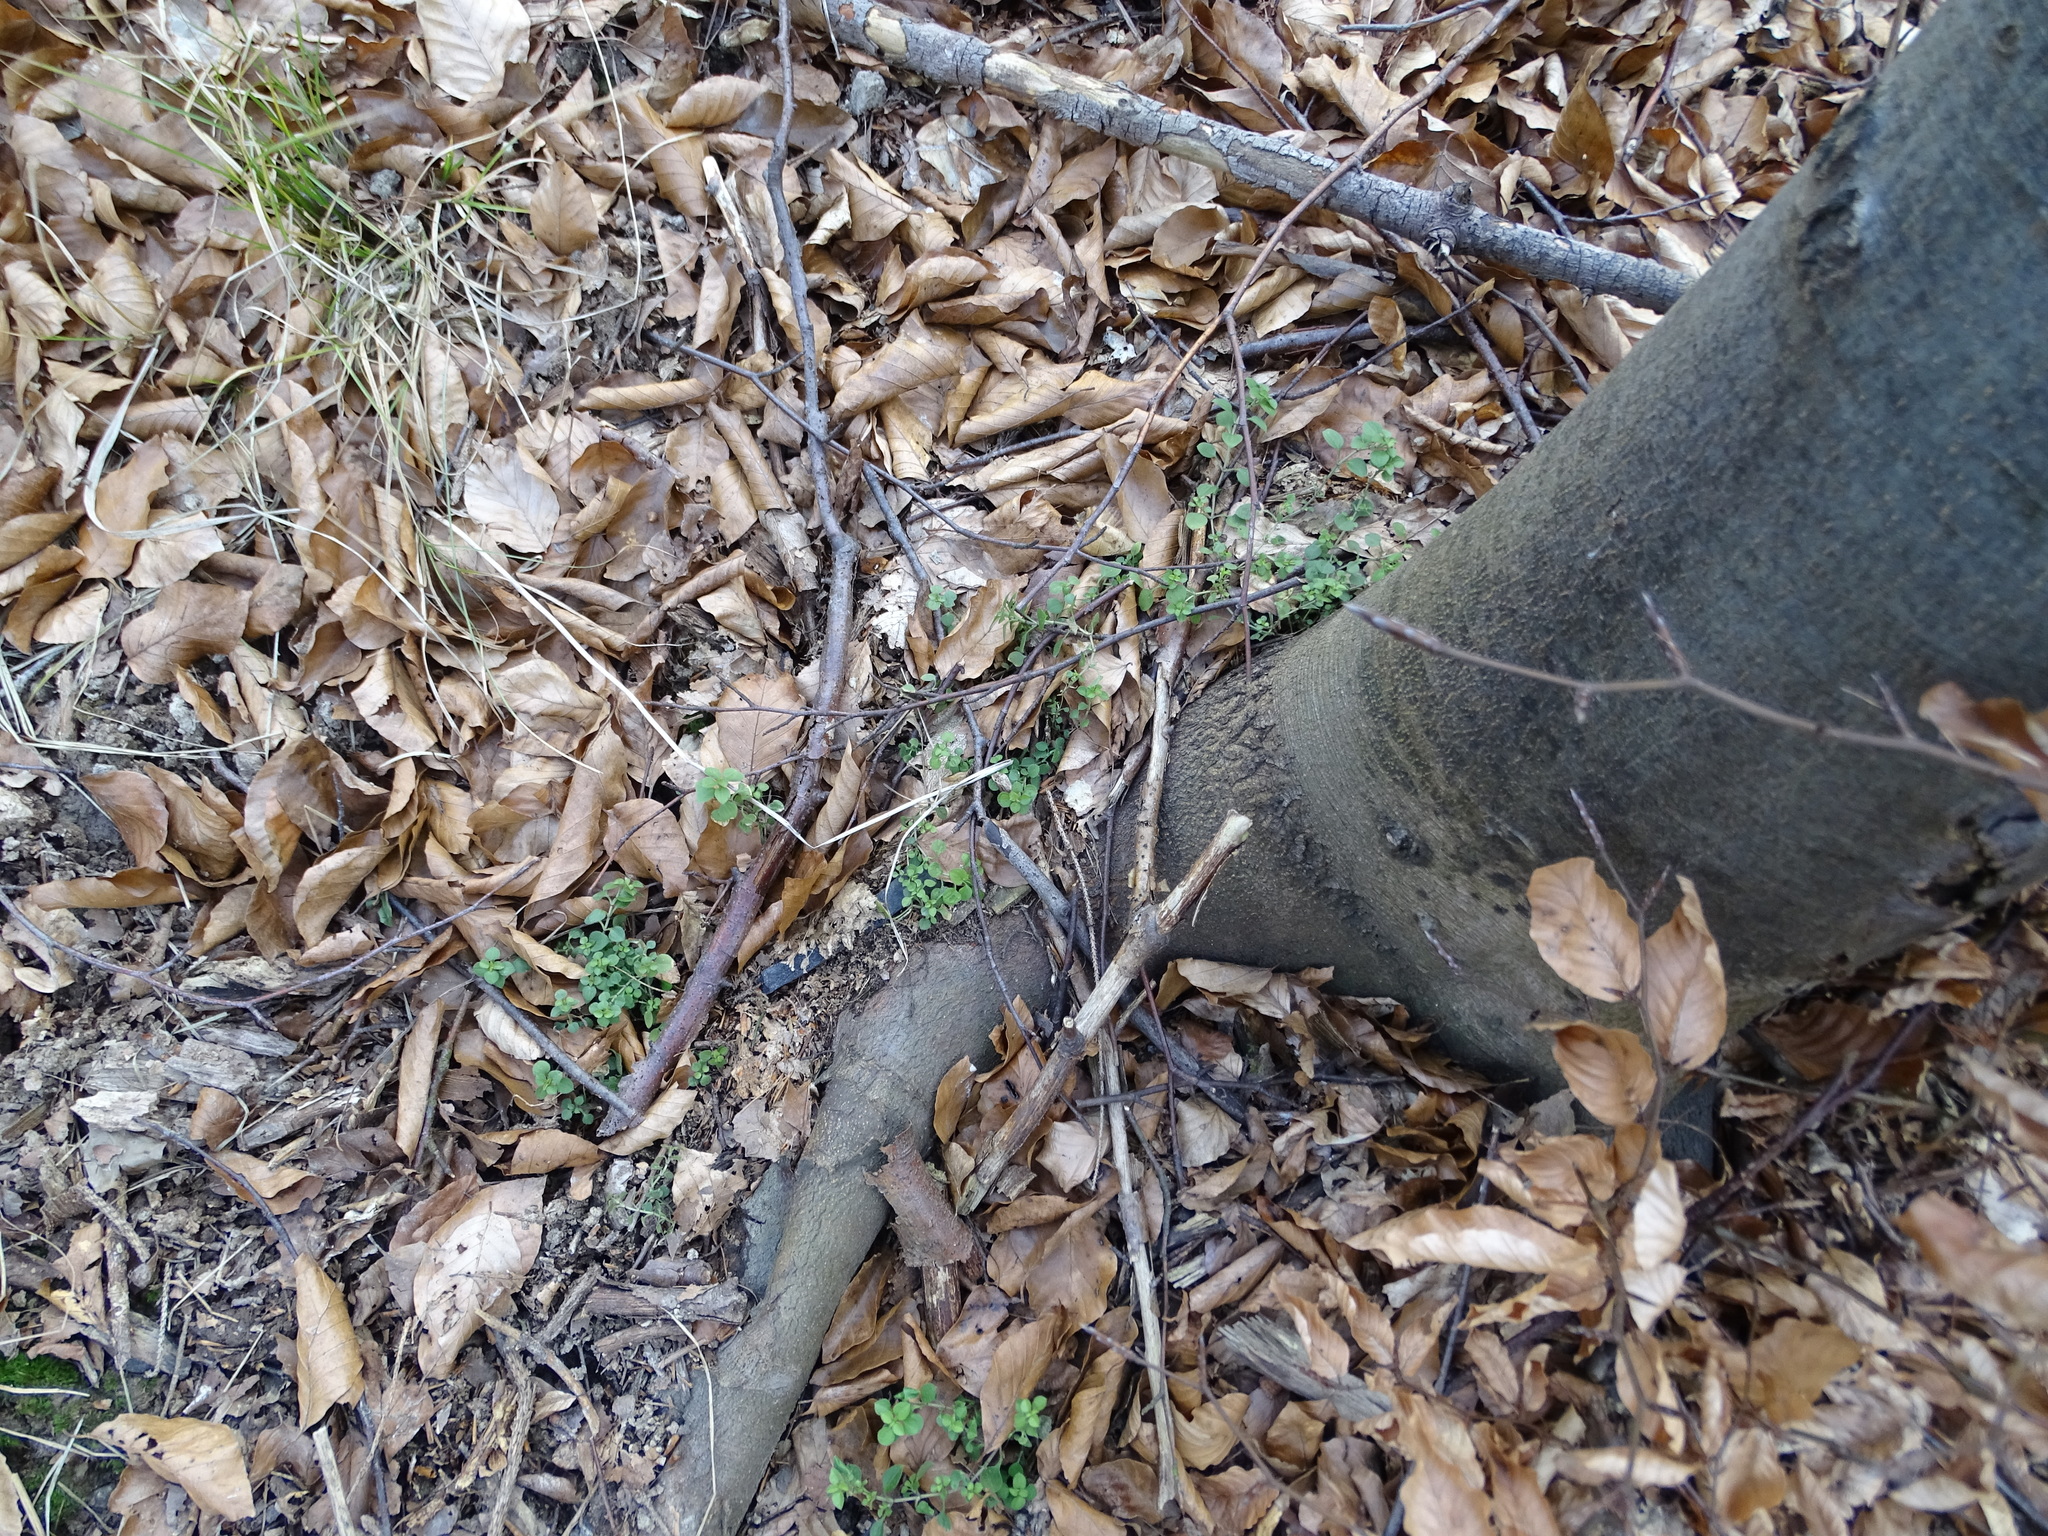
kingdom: Plantae
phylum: Tracheophyta
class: Magnoliopsida
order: Caryophyllales
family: Caryophyllaceae
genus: Stellaria
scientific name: Stellaria media
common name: Common chickweed
